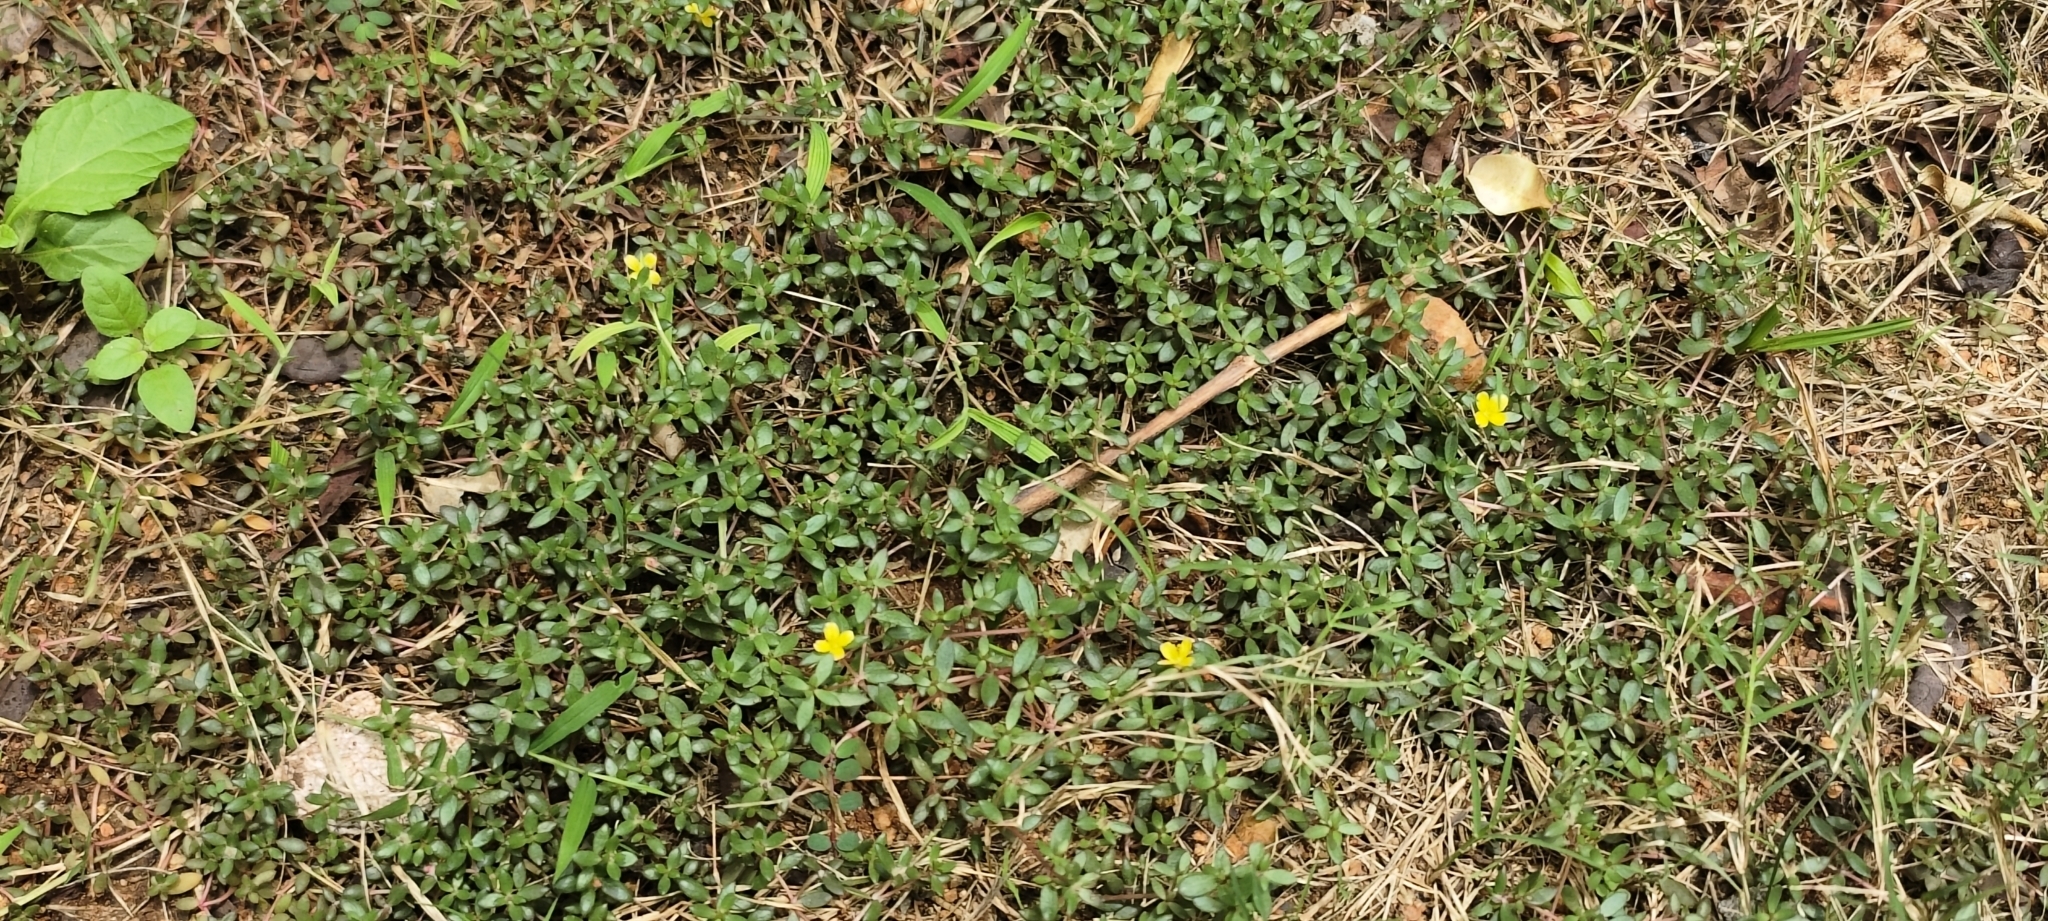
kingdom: Plantae
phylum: Tracheophyta
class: Magnoliopsida
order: Caryophyllales
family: Portulacaceae
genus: Portulaca
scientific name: Portulaca quadrifida
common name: Chickenweed
